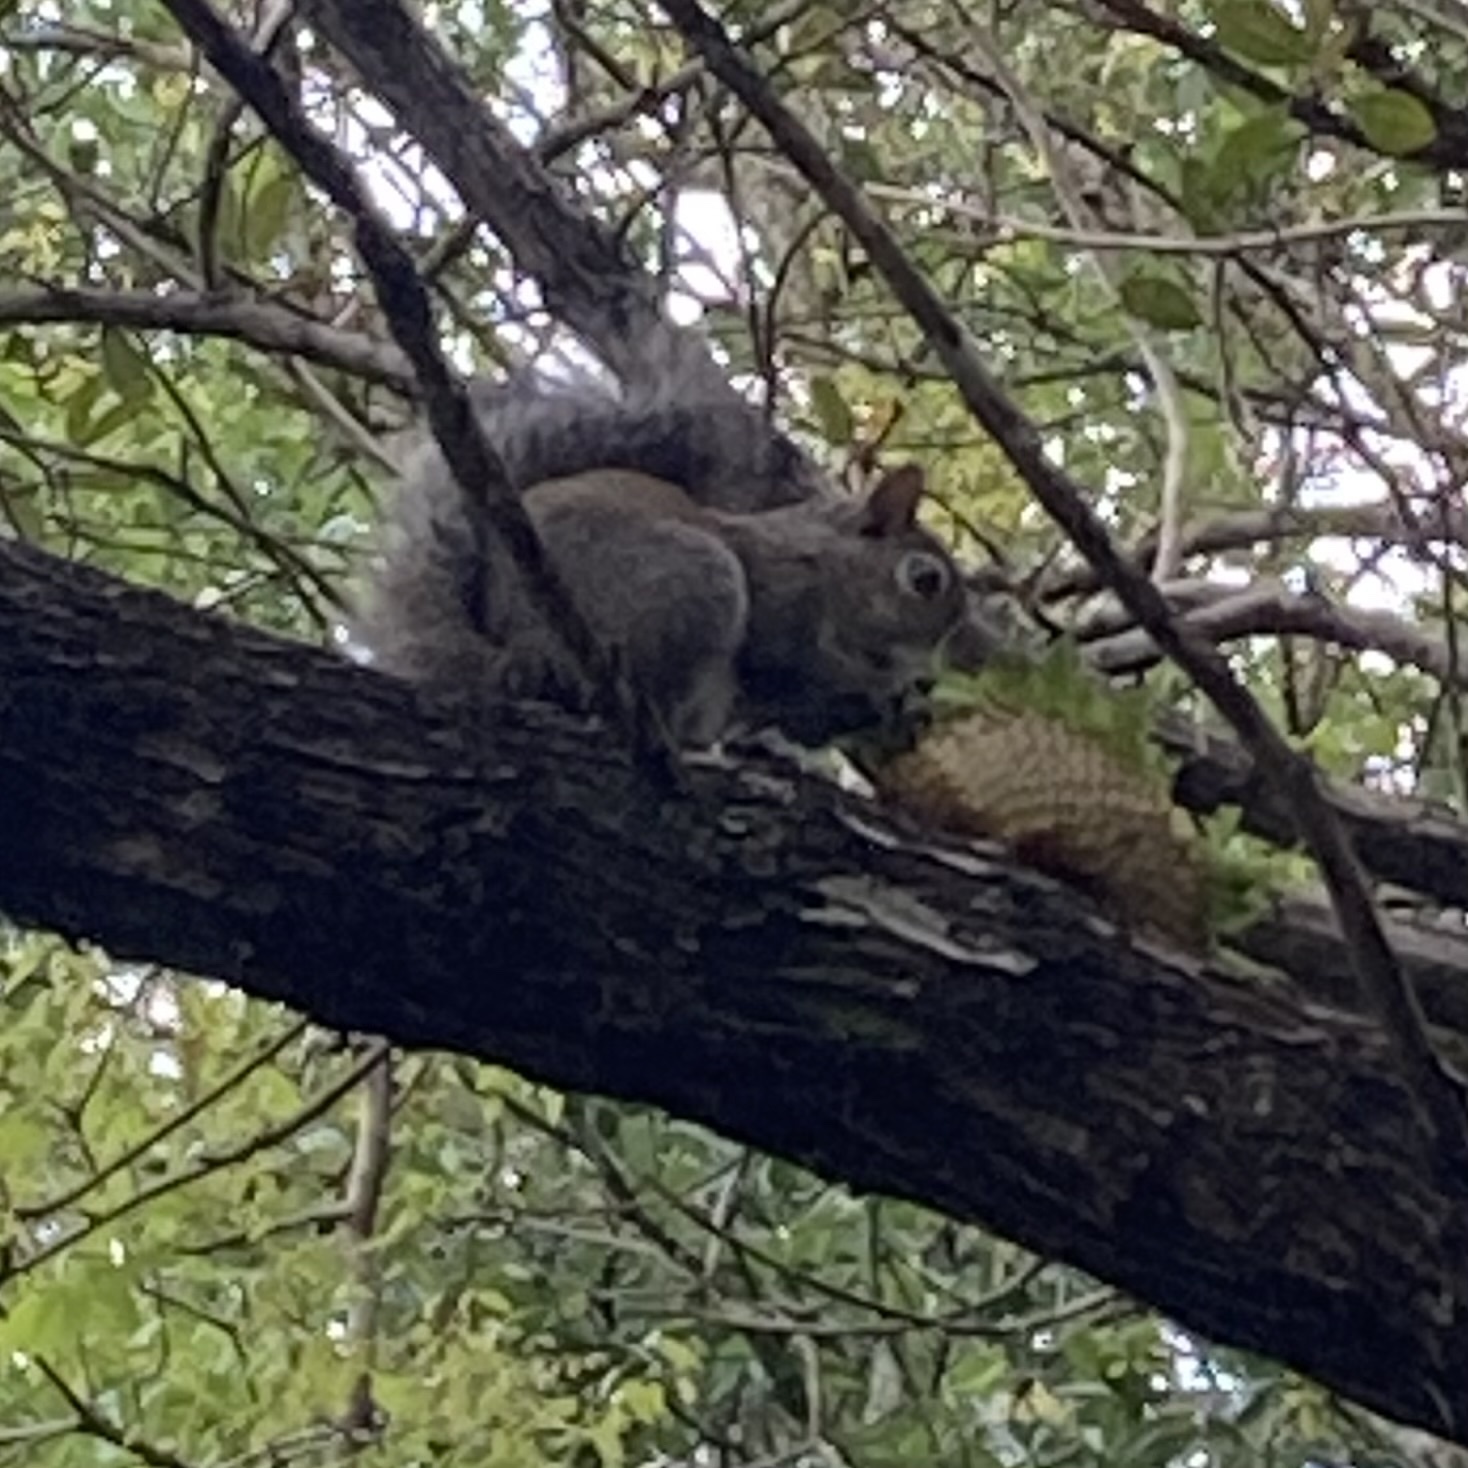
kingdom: Animalia
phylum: Chordata
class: Mammalia
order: Rodentia
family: Sciuridae
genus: Sciurus
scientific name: Sciurus carolinensis
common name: Eastern gray squirrel
